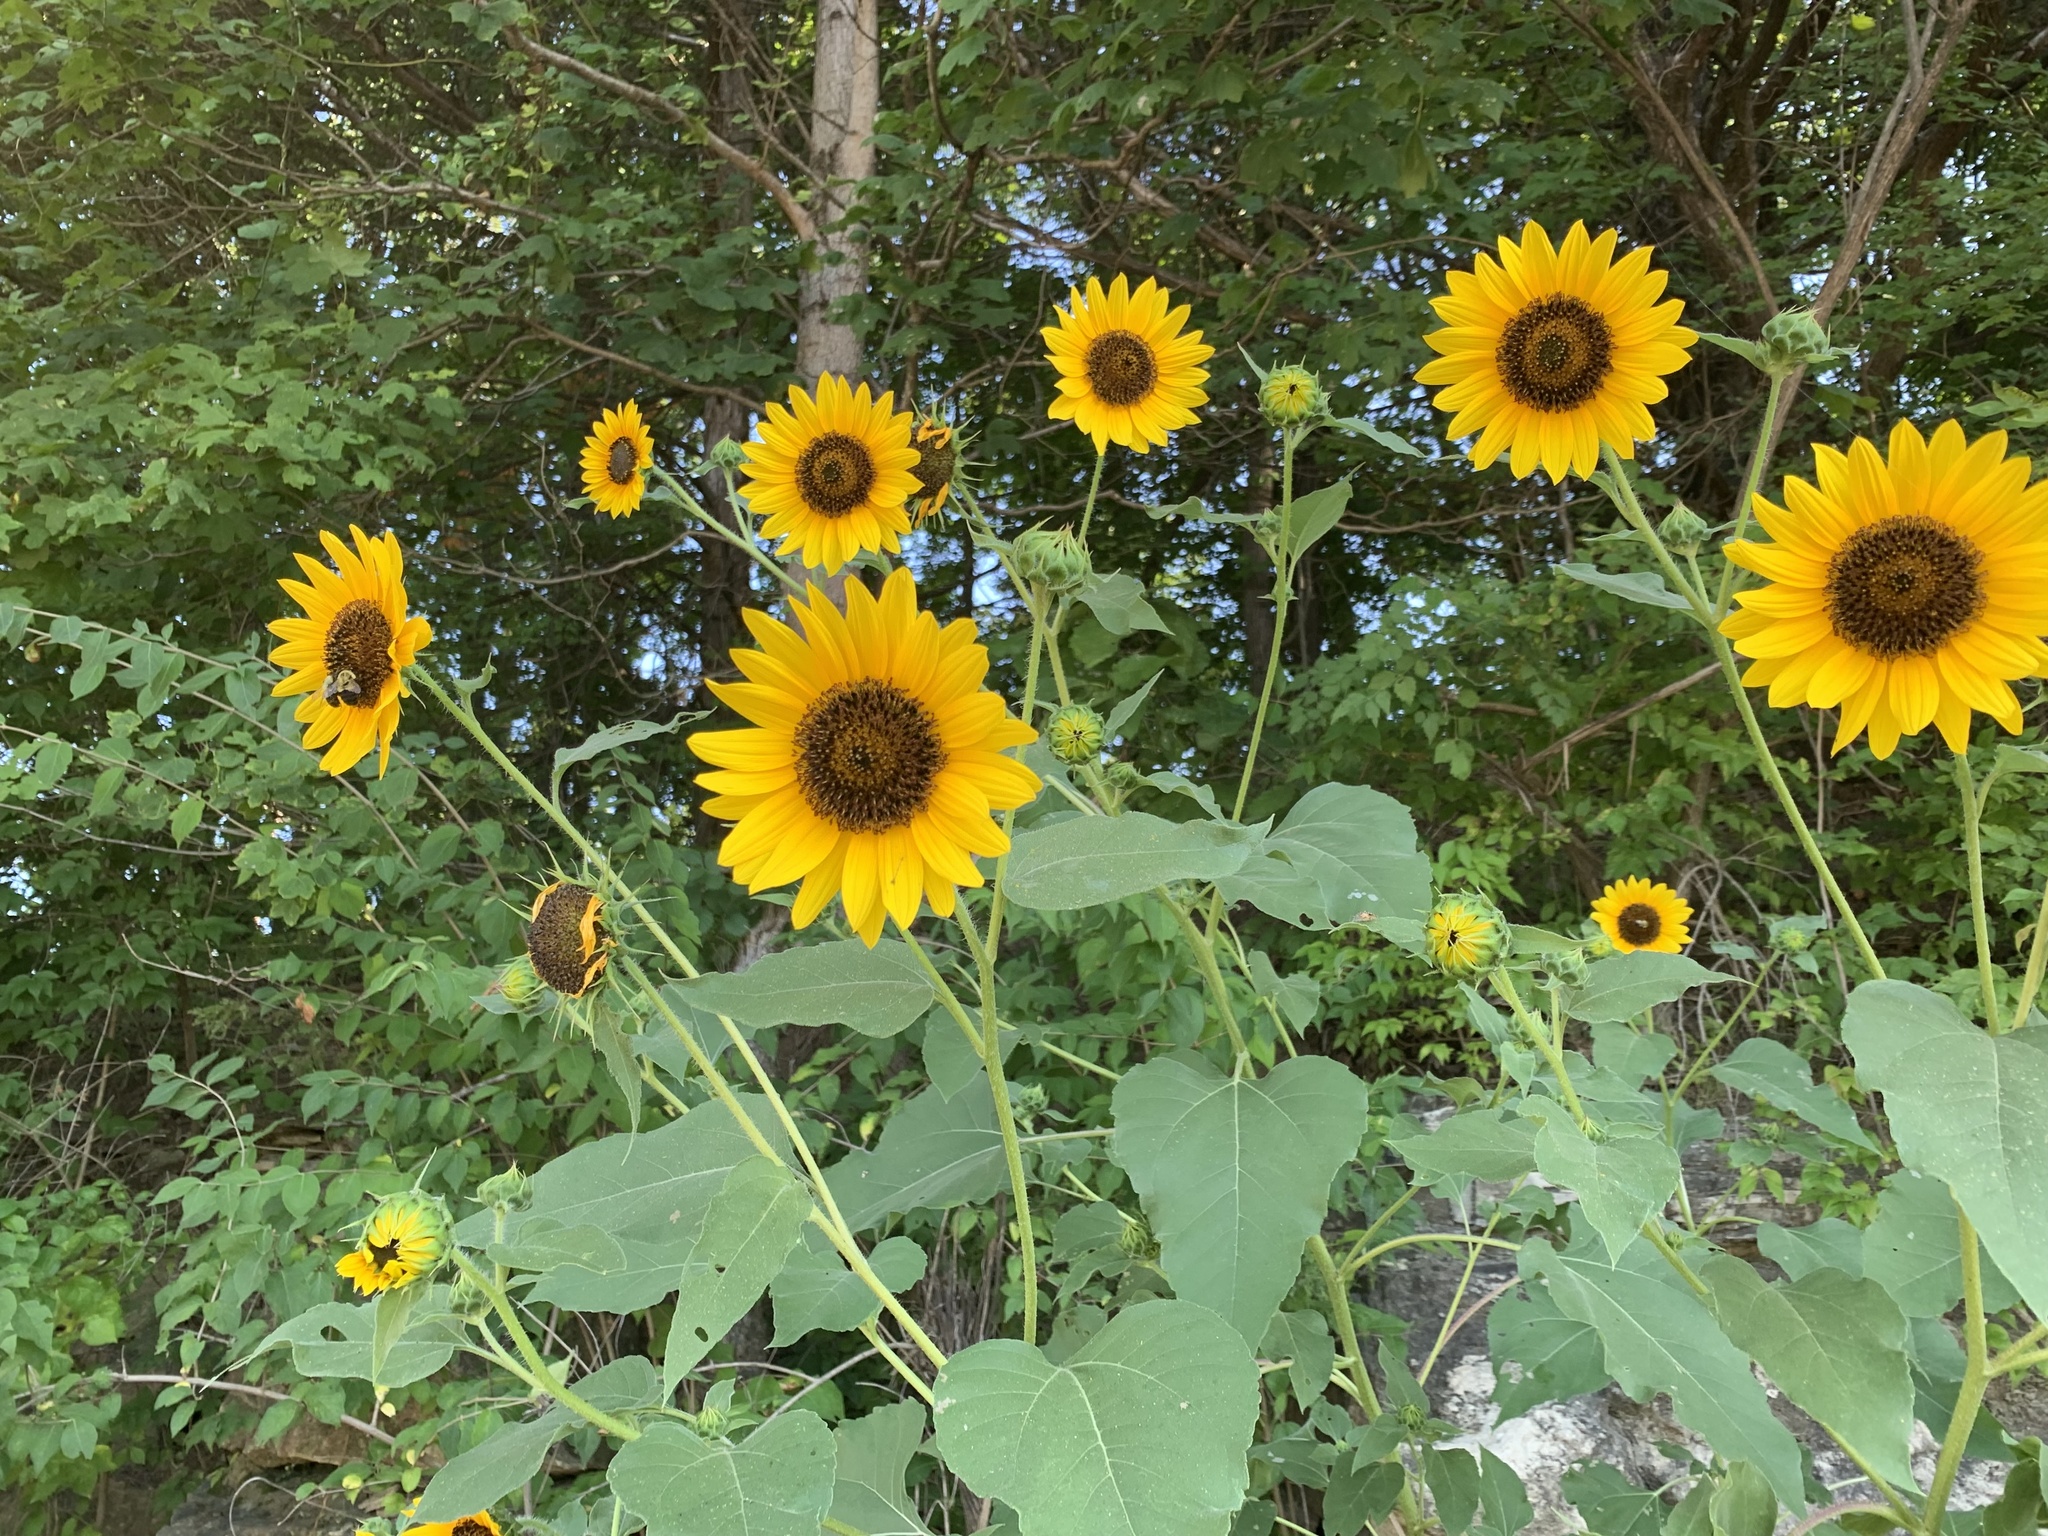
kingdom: Plantae
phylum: Tracheophyta
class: Magnoliopsida
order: Asterales
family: Asteraceae
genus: Helianthus
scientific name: Helianthus annuus
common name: Sunflower
